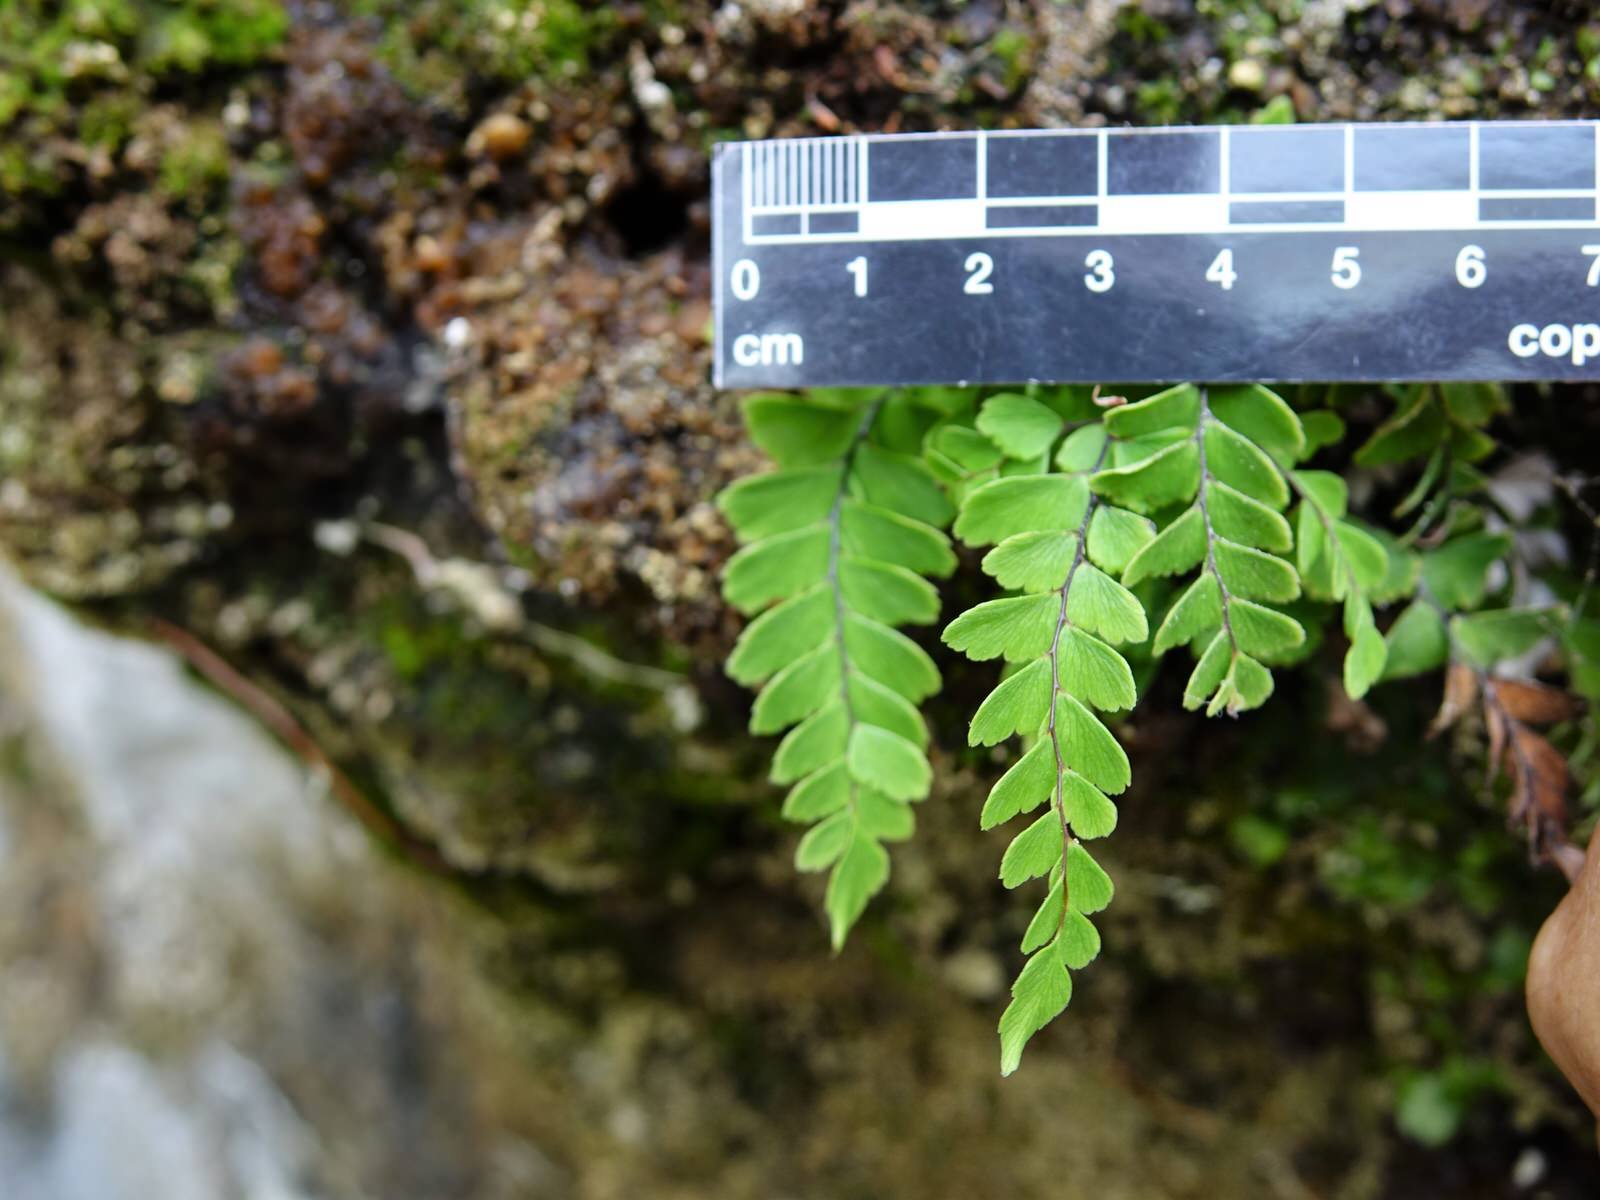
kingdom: Plantae
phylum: Tracheophyta
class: Polypodiopsida
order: Polypodiales
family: Pteridaceae
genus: Adiantum
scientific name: Adiantum cunninghamii
